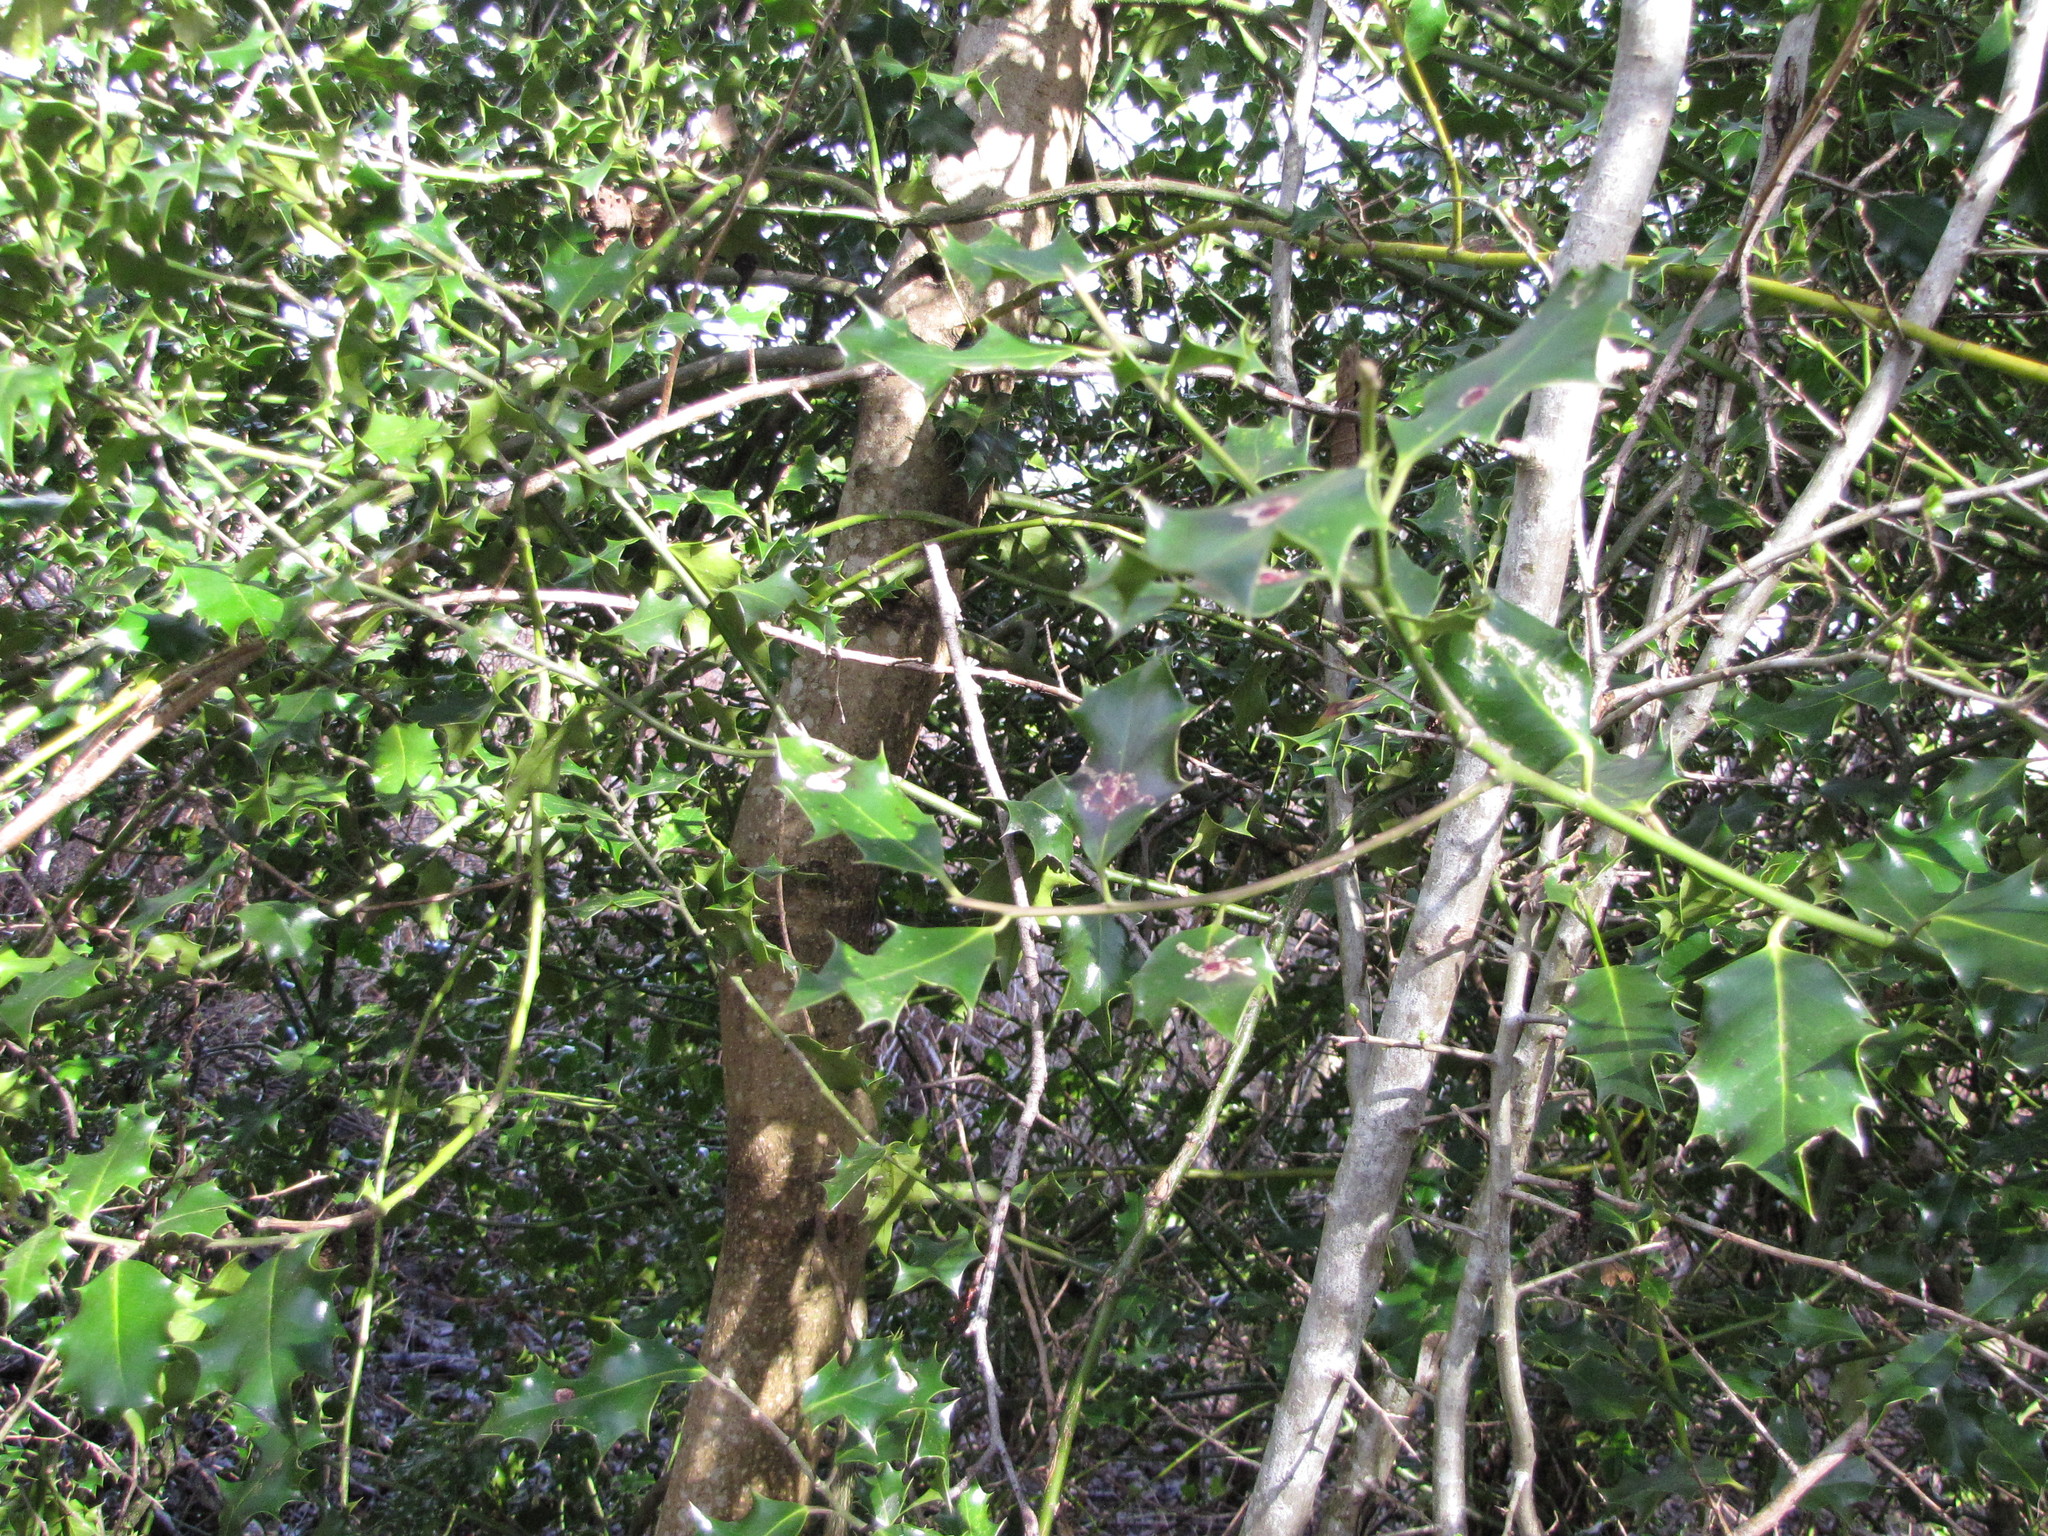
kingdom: Plantae
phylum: Tracheophyta
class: Magnoliopsida
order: Aquifoliales
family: Aquifoliaceae
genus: Ilex
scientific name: Ilex aquifolium
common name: English holly
